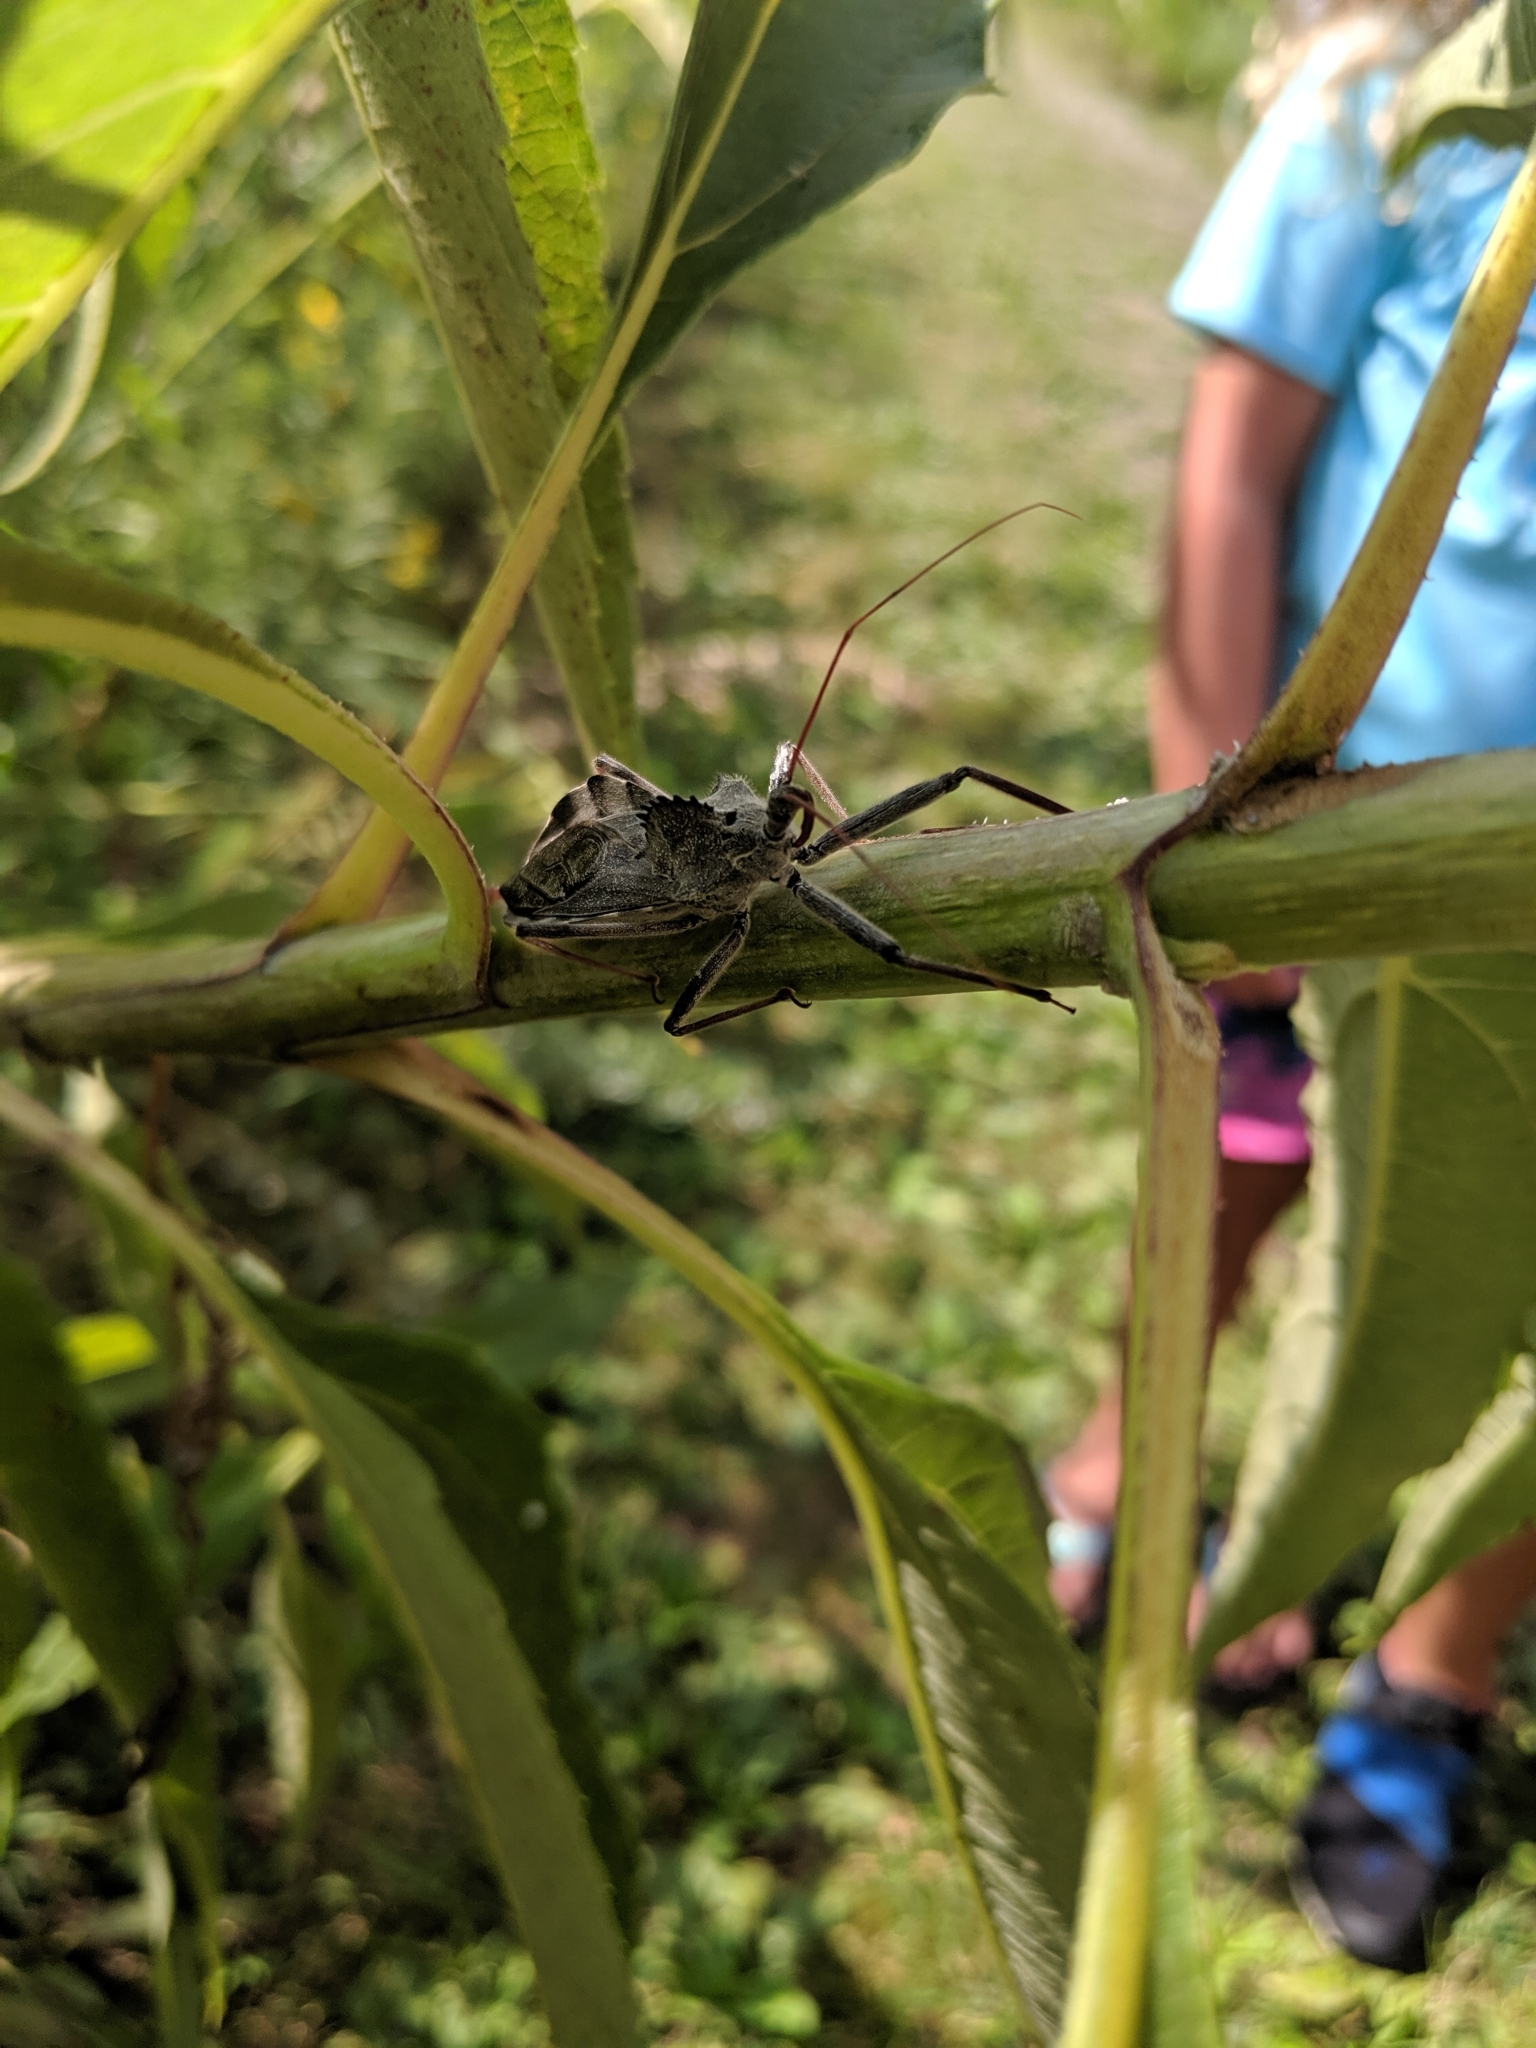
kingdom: Animalia
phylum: Arthropoda
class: Insecta
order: Hemiptera
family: Reduviidae
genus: Arilus
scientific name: Arilus cristatus
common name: North american wheel bug
